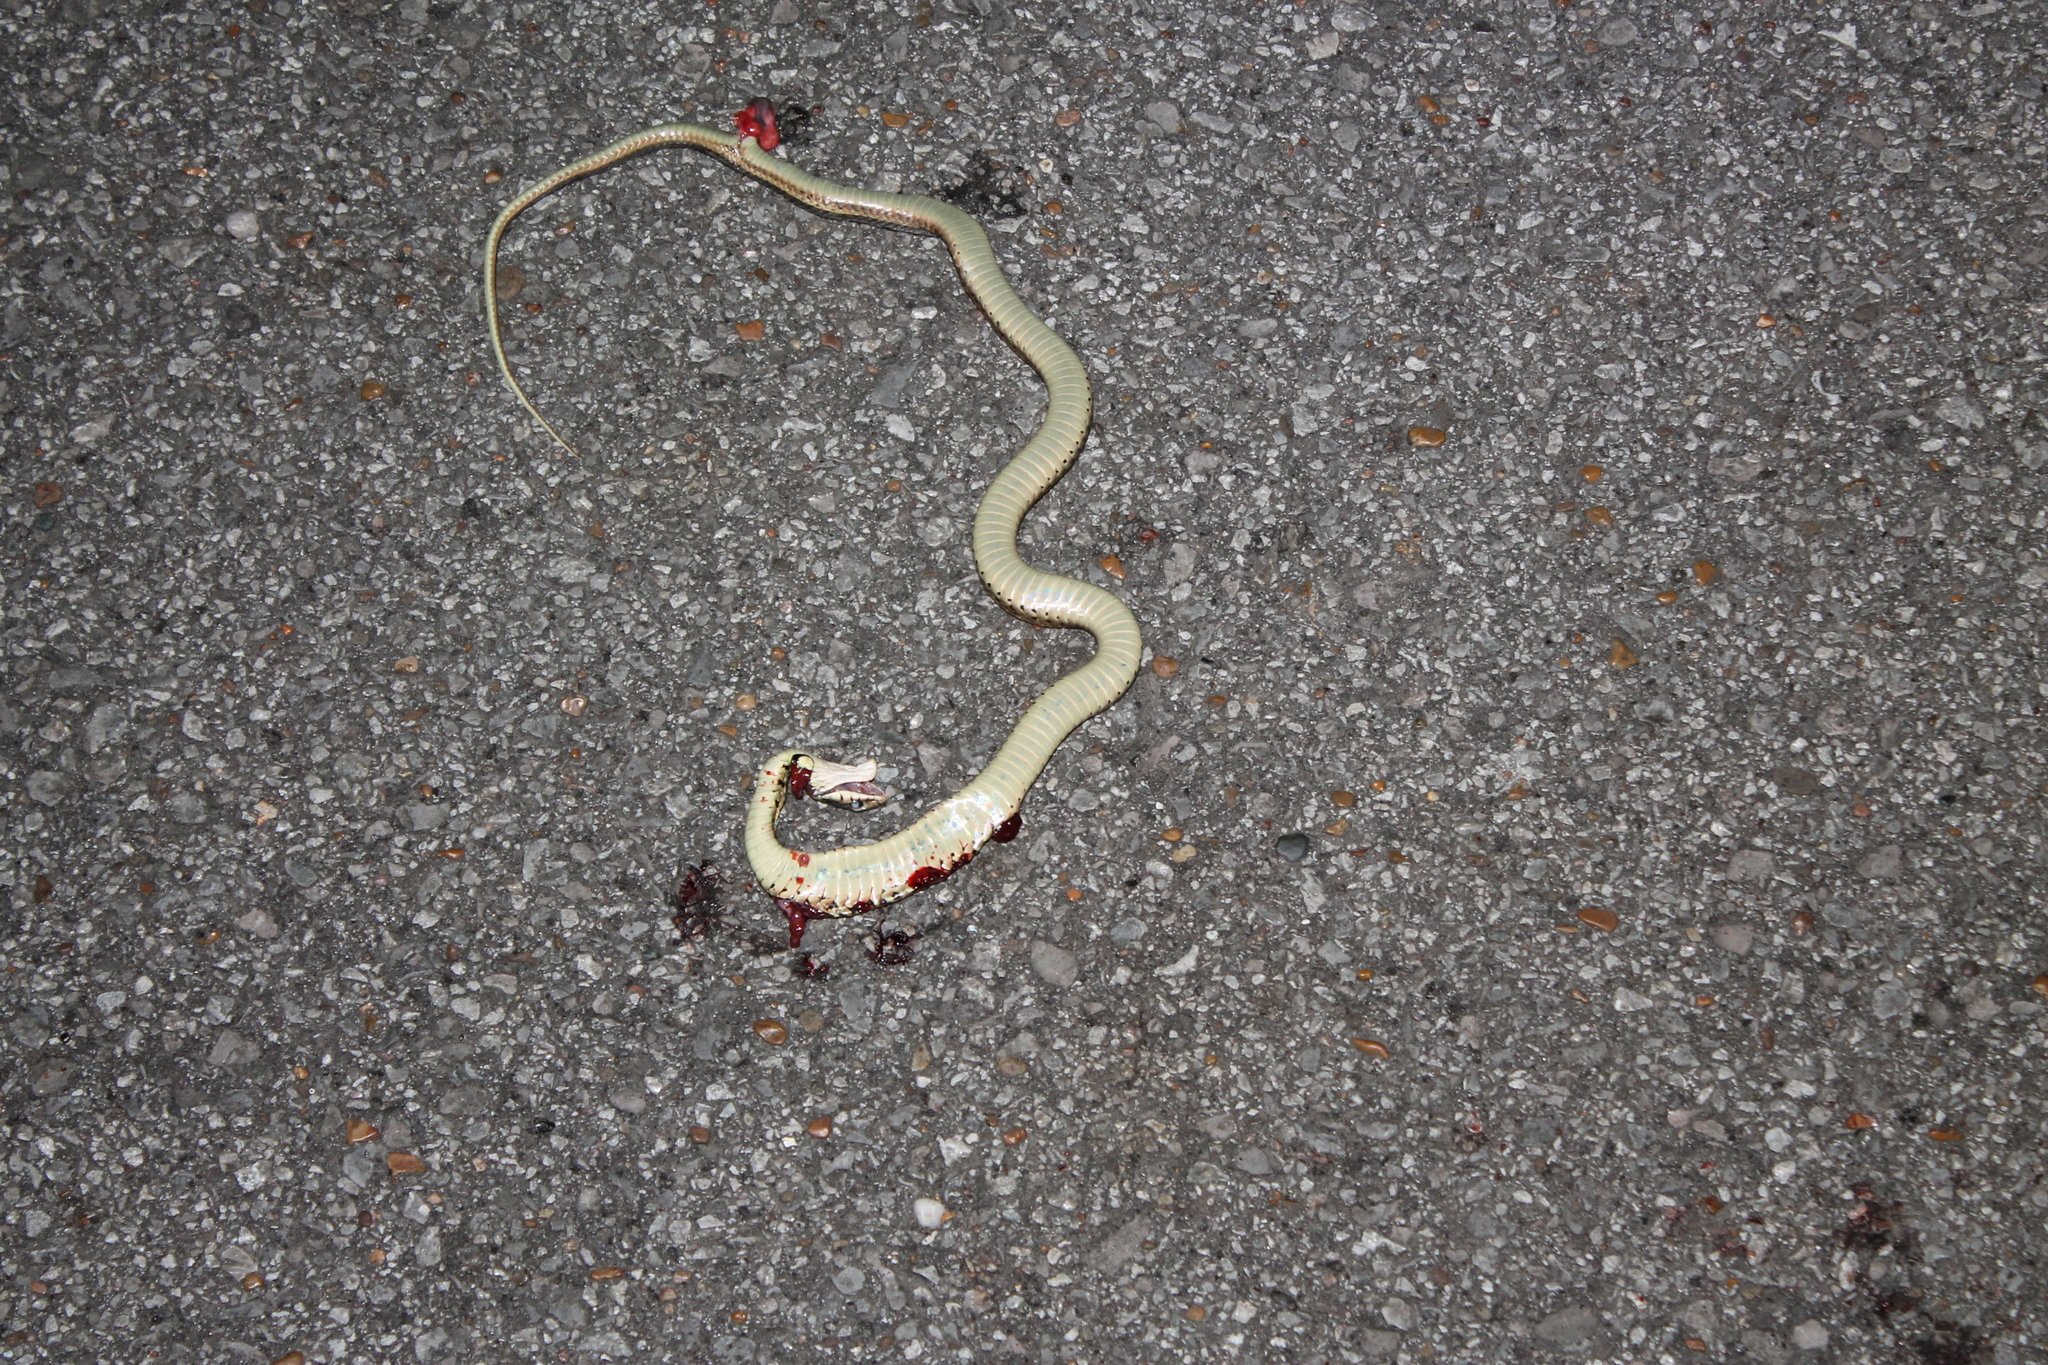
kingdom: Animalia
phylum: Chordata
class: Squamata
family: Colubridae
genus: Thamnophis
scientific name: Thamnophis sirtalis
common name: Common garter snake
